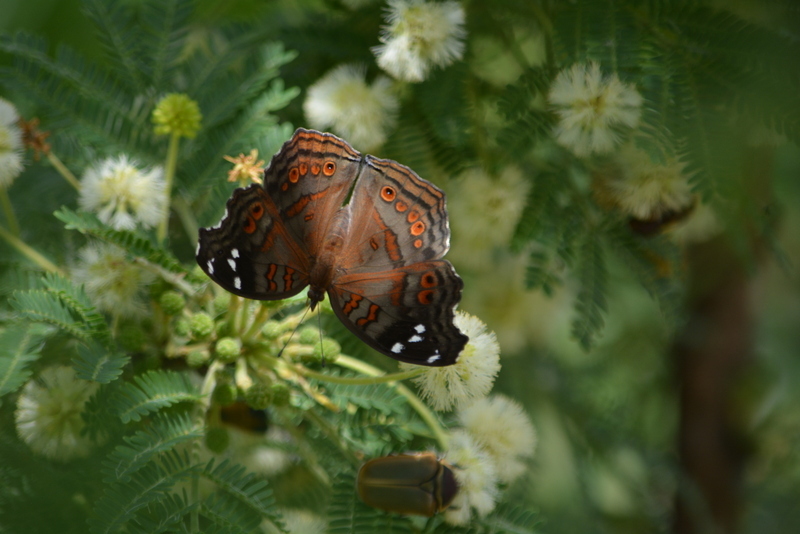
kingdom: Animalia
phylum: Arthropoda
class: Insecta
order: Lepidoptera
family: Nymphalidae
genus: Junonia
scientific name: Junonia natalica
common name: Brown pansy
